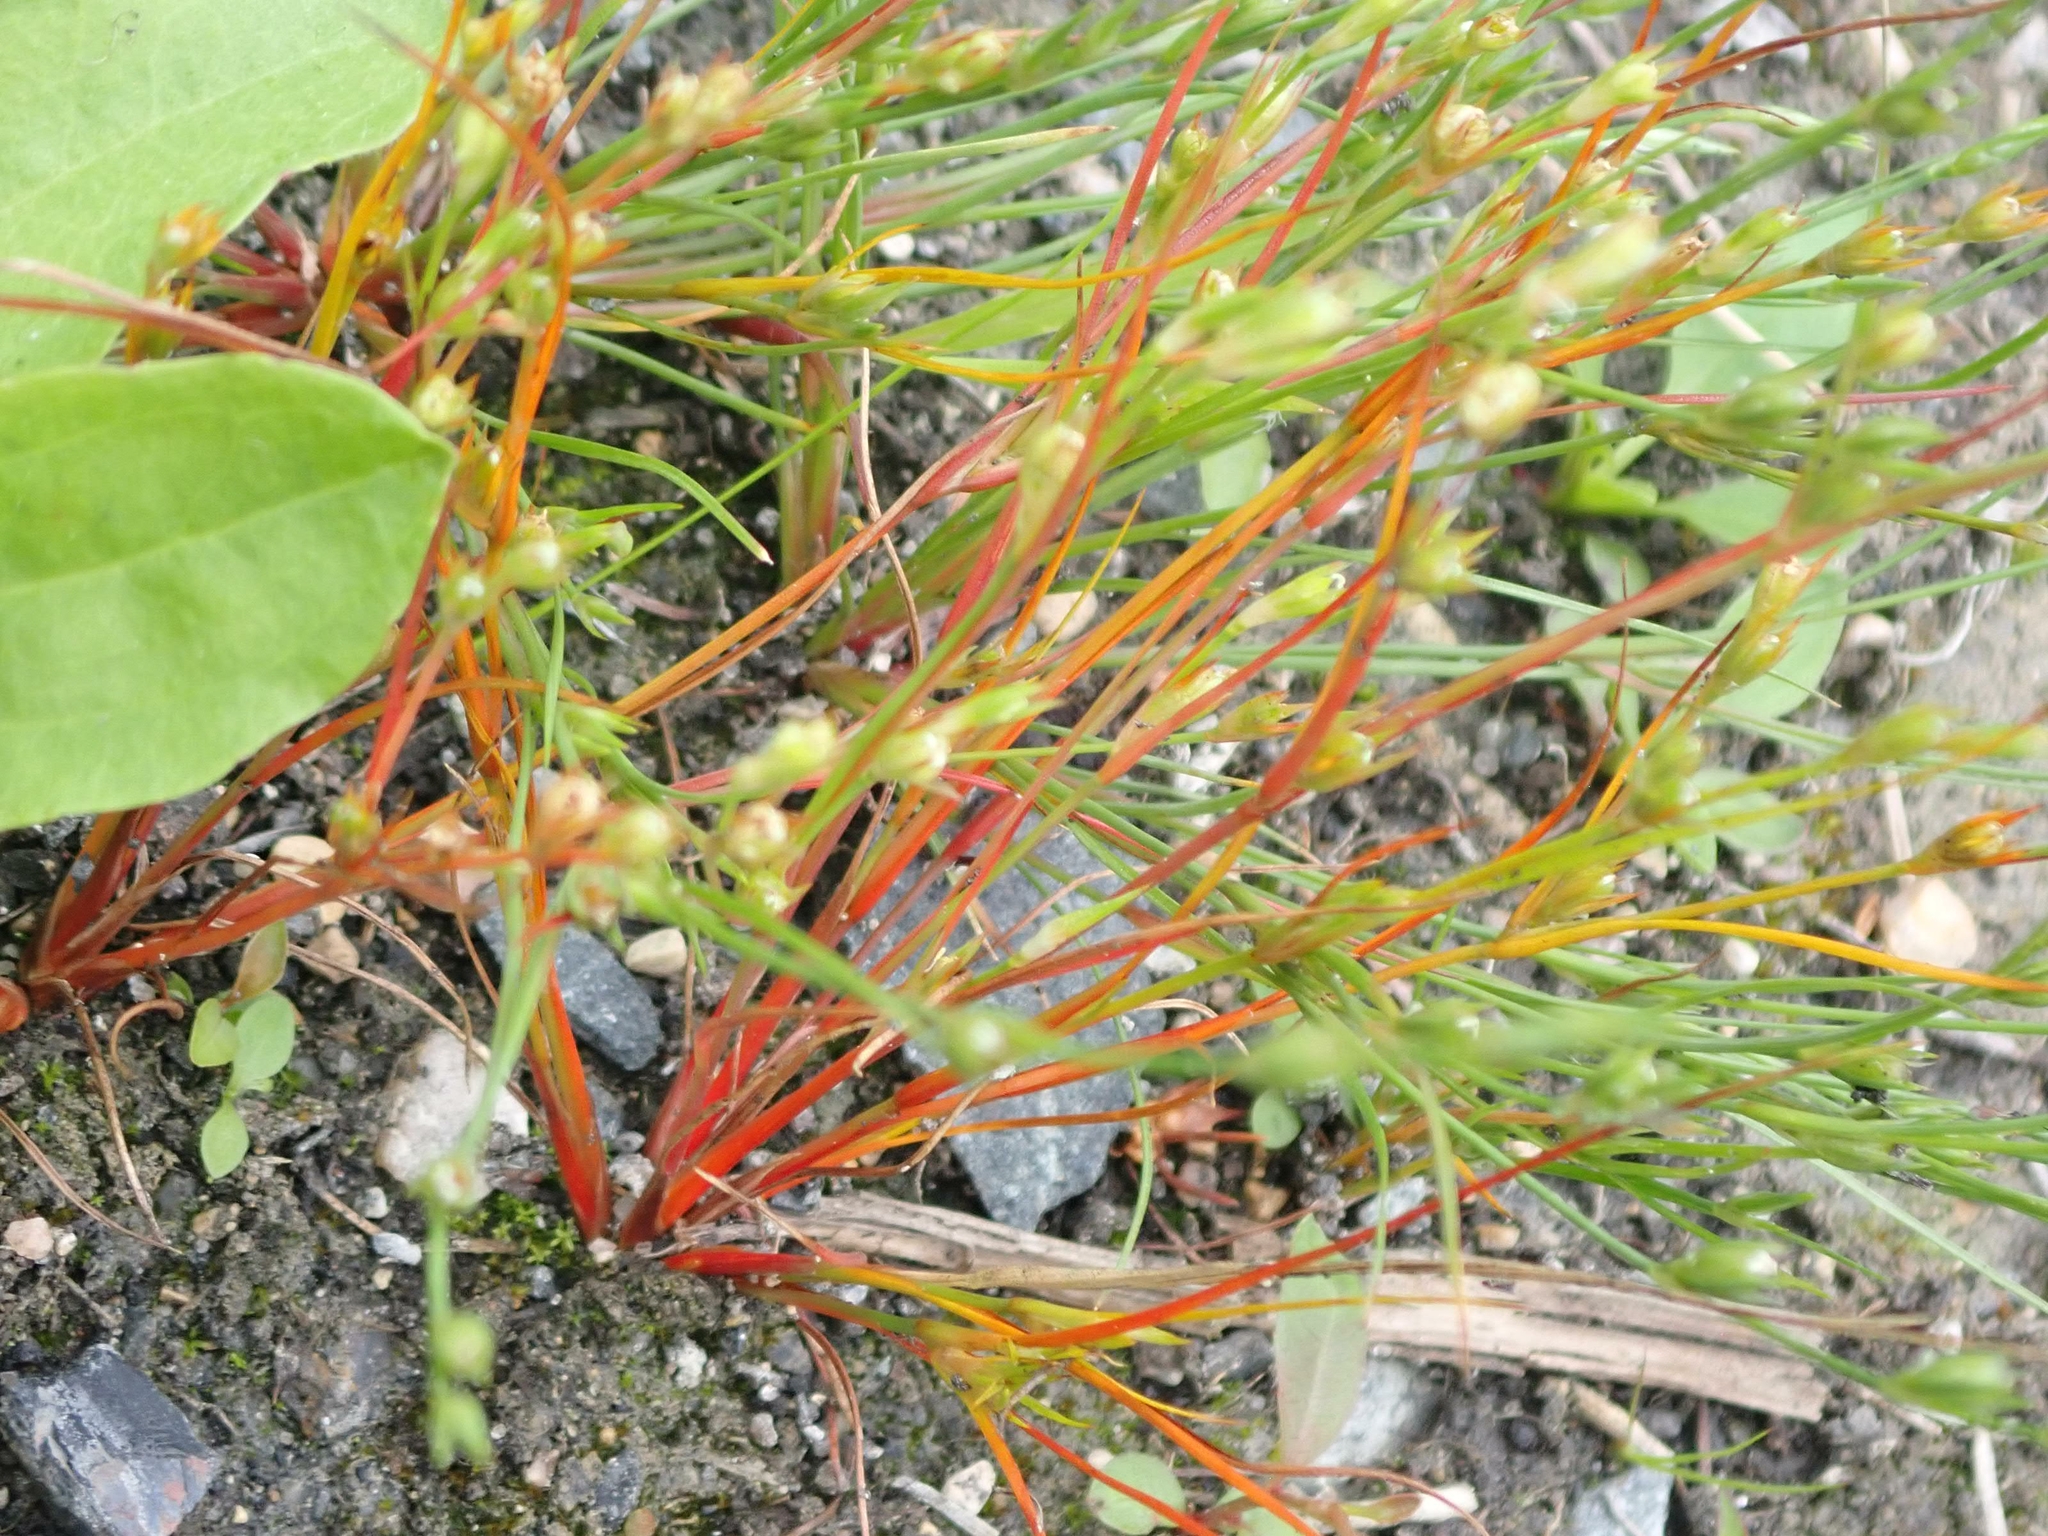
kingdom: Plantae
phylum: Tracheophyta
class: Magnoliopsida
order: Ericales
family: Primulaceae
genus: Androsace
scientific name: Androsace septentrionalis
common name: Hairy northern fairy-candelabra
